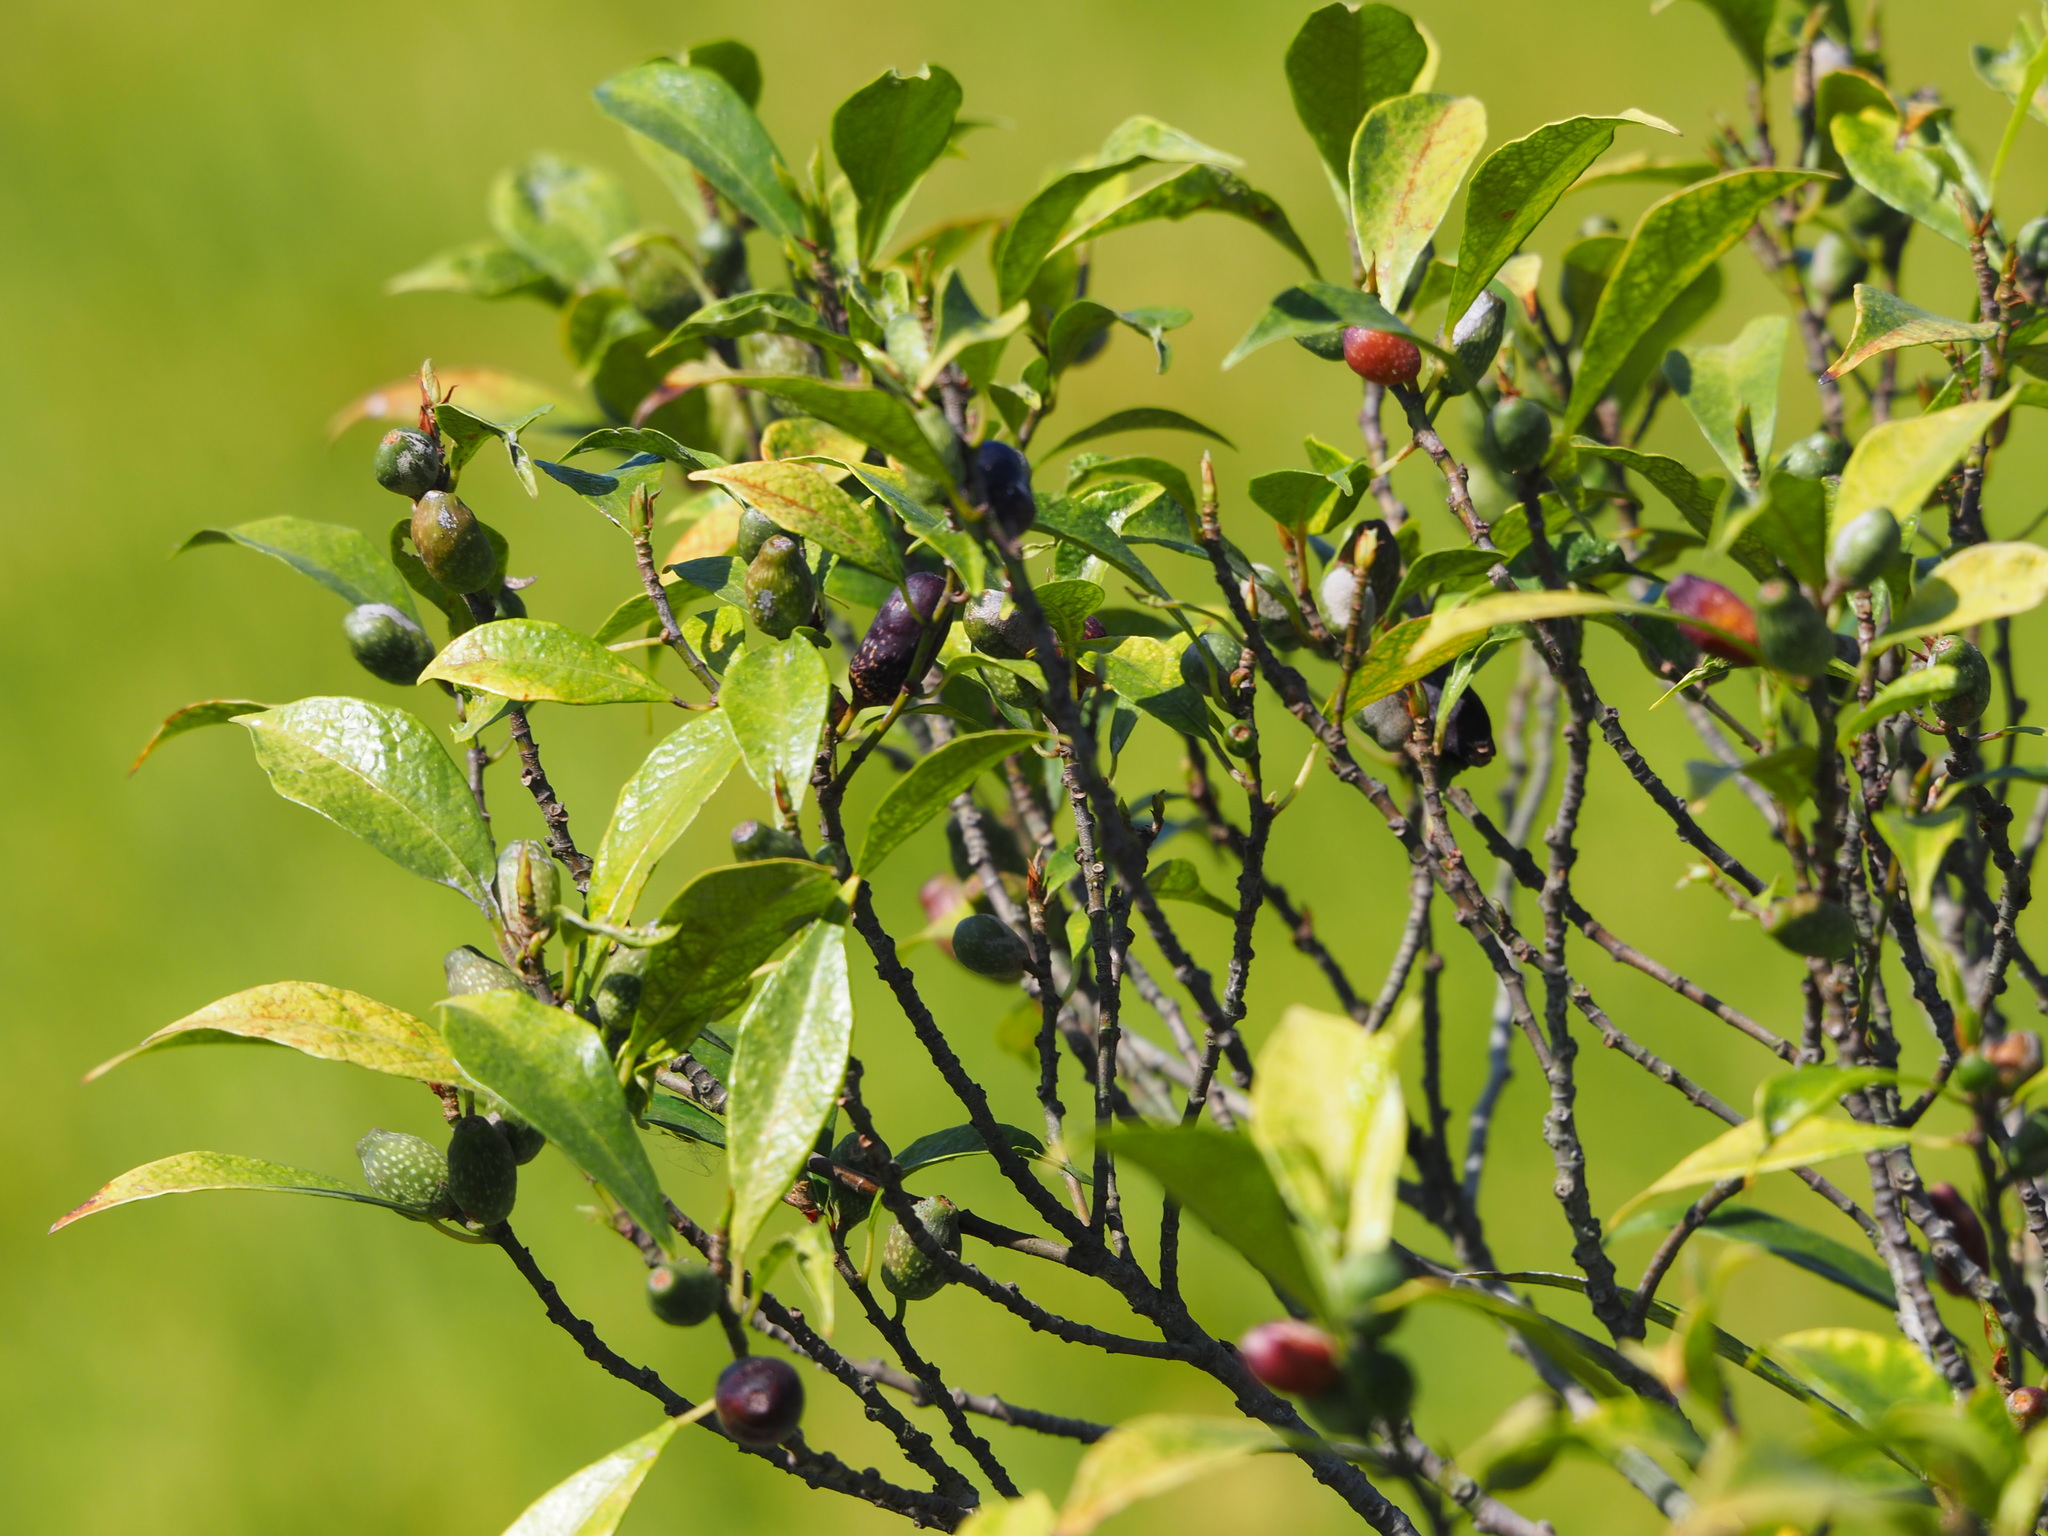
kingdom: Plantae
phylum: Tracheophyta
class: Magnoliopsida
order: Rosales
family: Moraceae
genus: Ficus
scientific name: Ficus formosana
